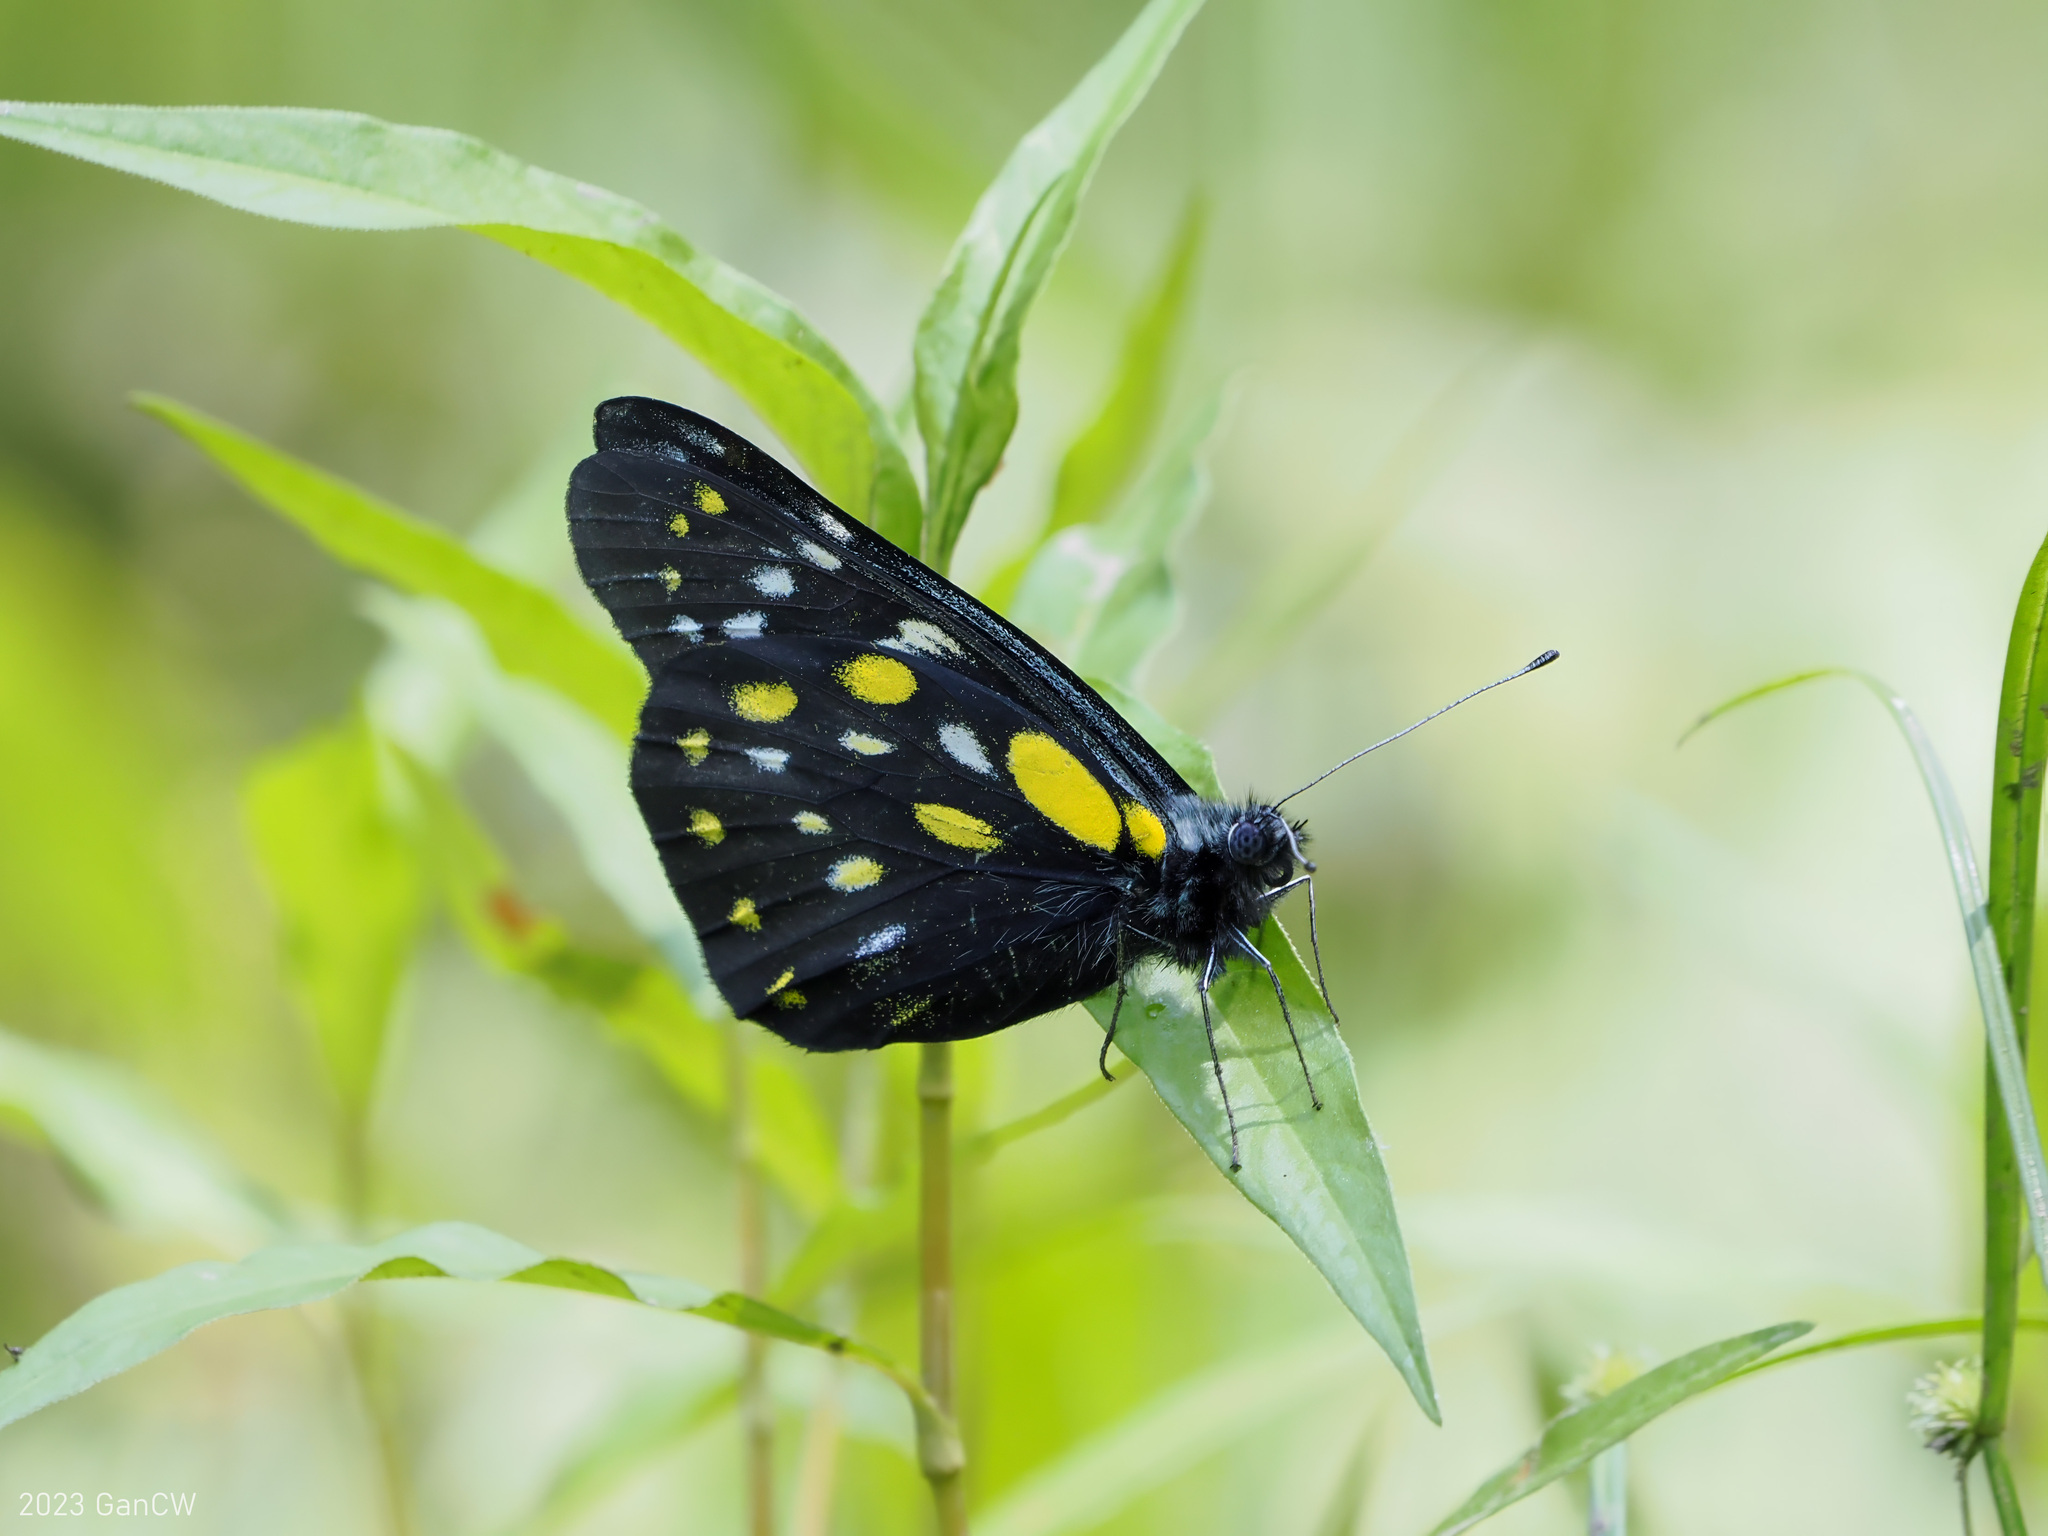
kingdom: Animalia
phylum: Arthropoda
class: Insecta
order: Lepidoptera
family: Pieridae
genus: Delias
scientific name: Delias belladonna
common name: Hill jezebel
